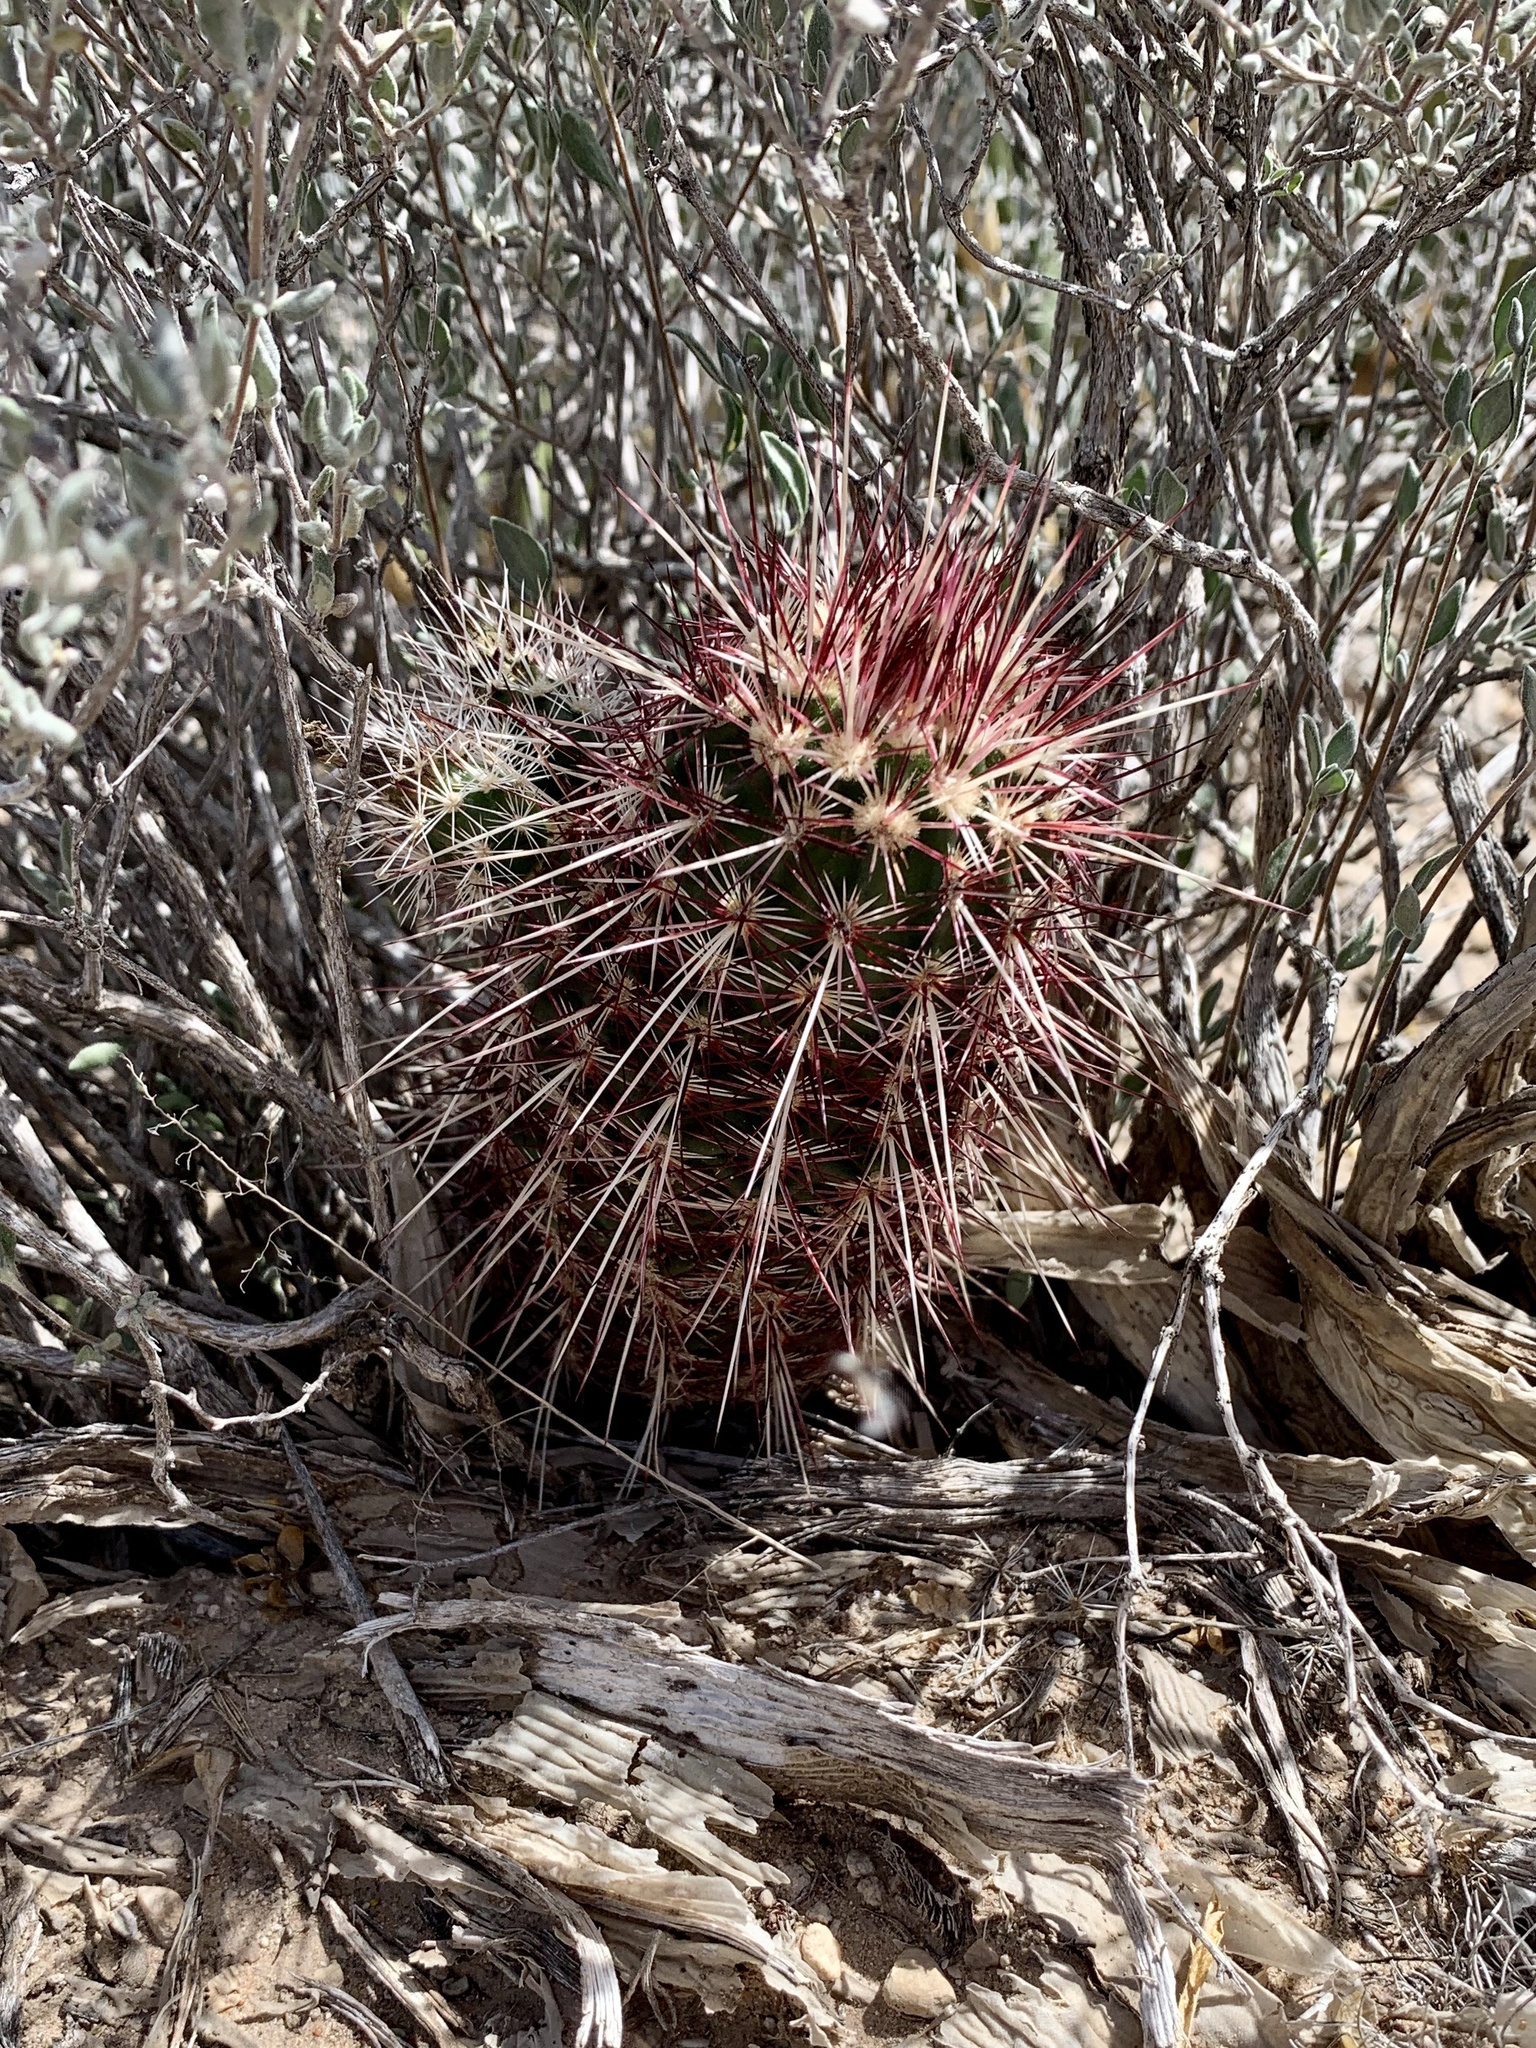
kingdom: Plantae
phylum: Tracheophyta
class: Magnoliopsida
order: Caryophyllales
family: Cactaceae
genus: Echinocereus
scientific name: Echinocereus viridiflorus
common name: Nylon hedgehog cactus
